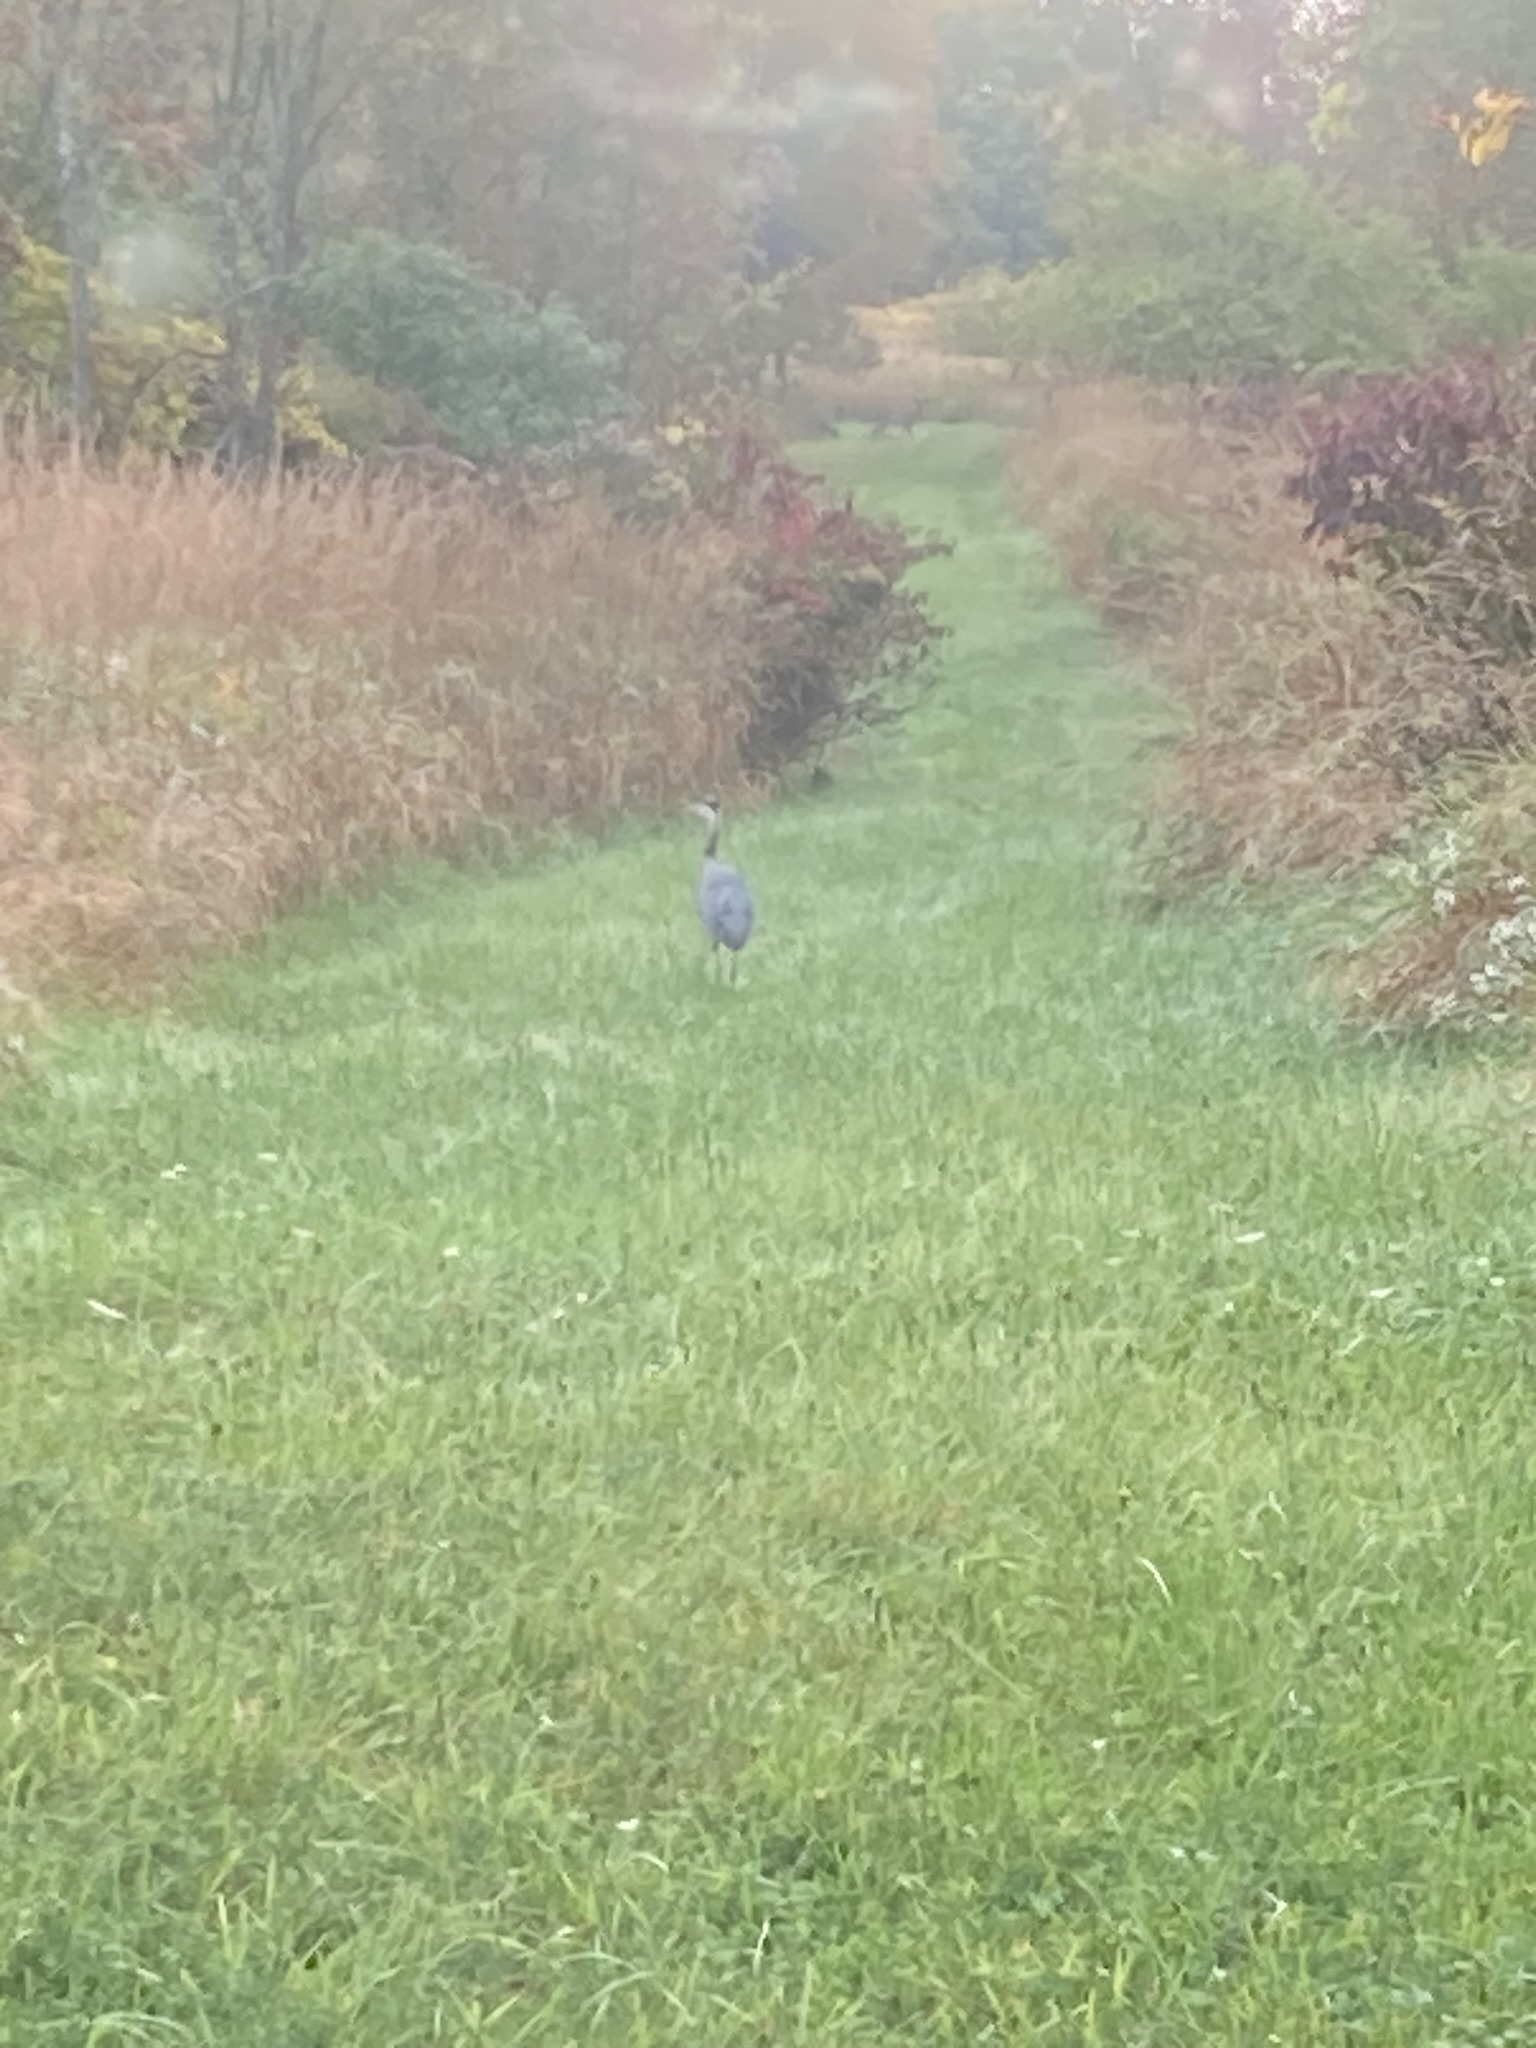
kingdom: Animalia
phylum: Chordata
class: Aves
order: Pelecaniformes
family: Ardeidae
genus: Ardea
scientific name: Ardea herodias
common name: Great blue heron
